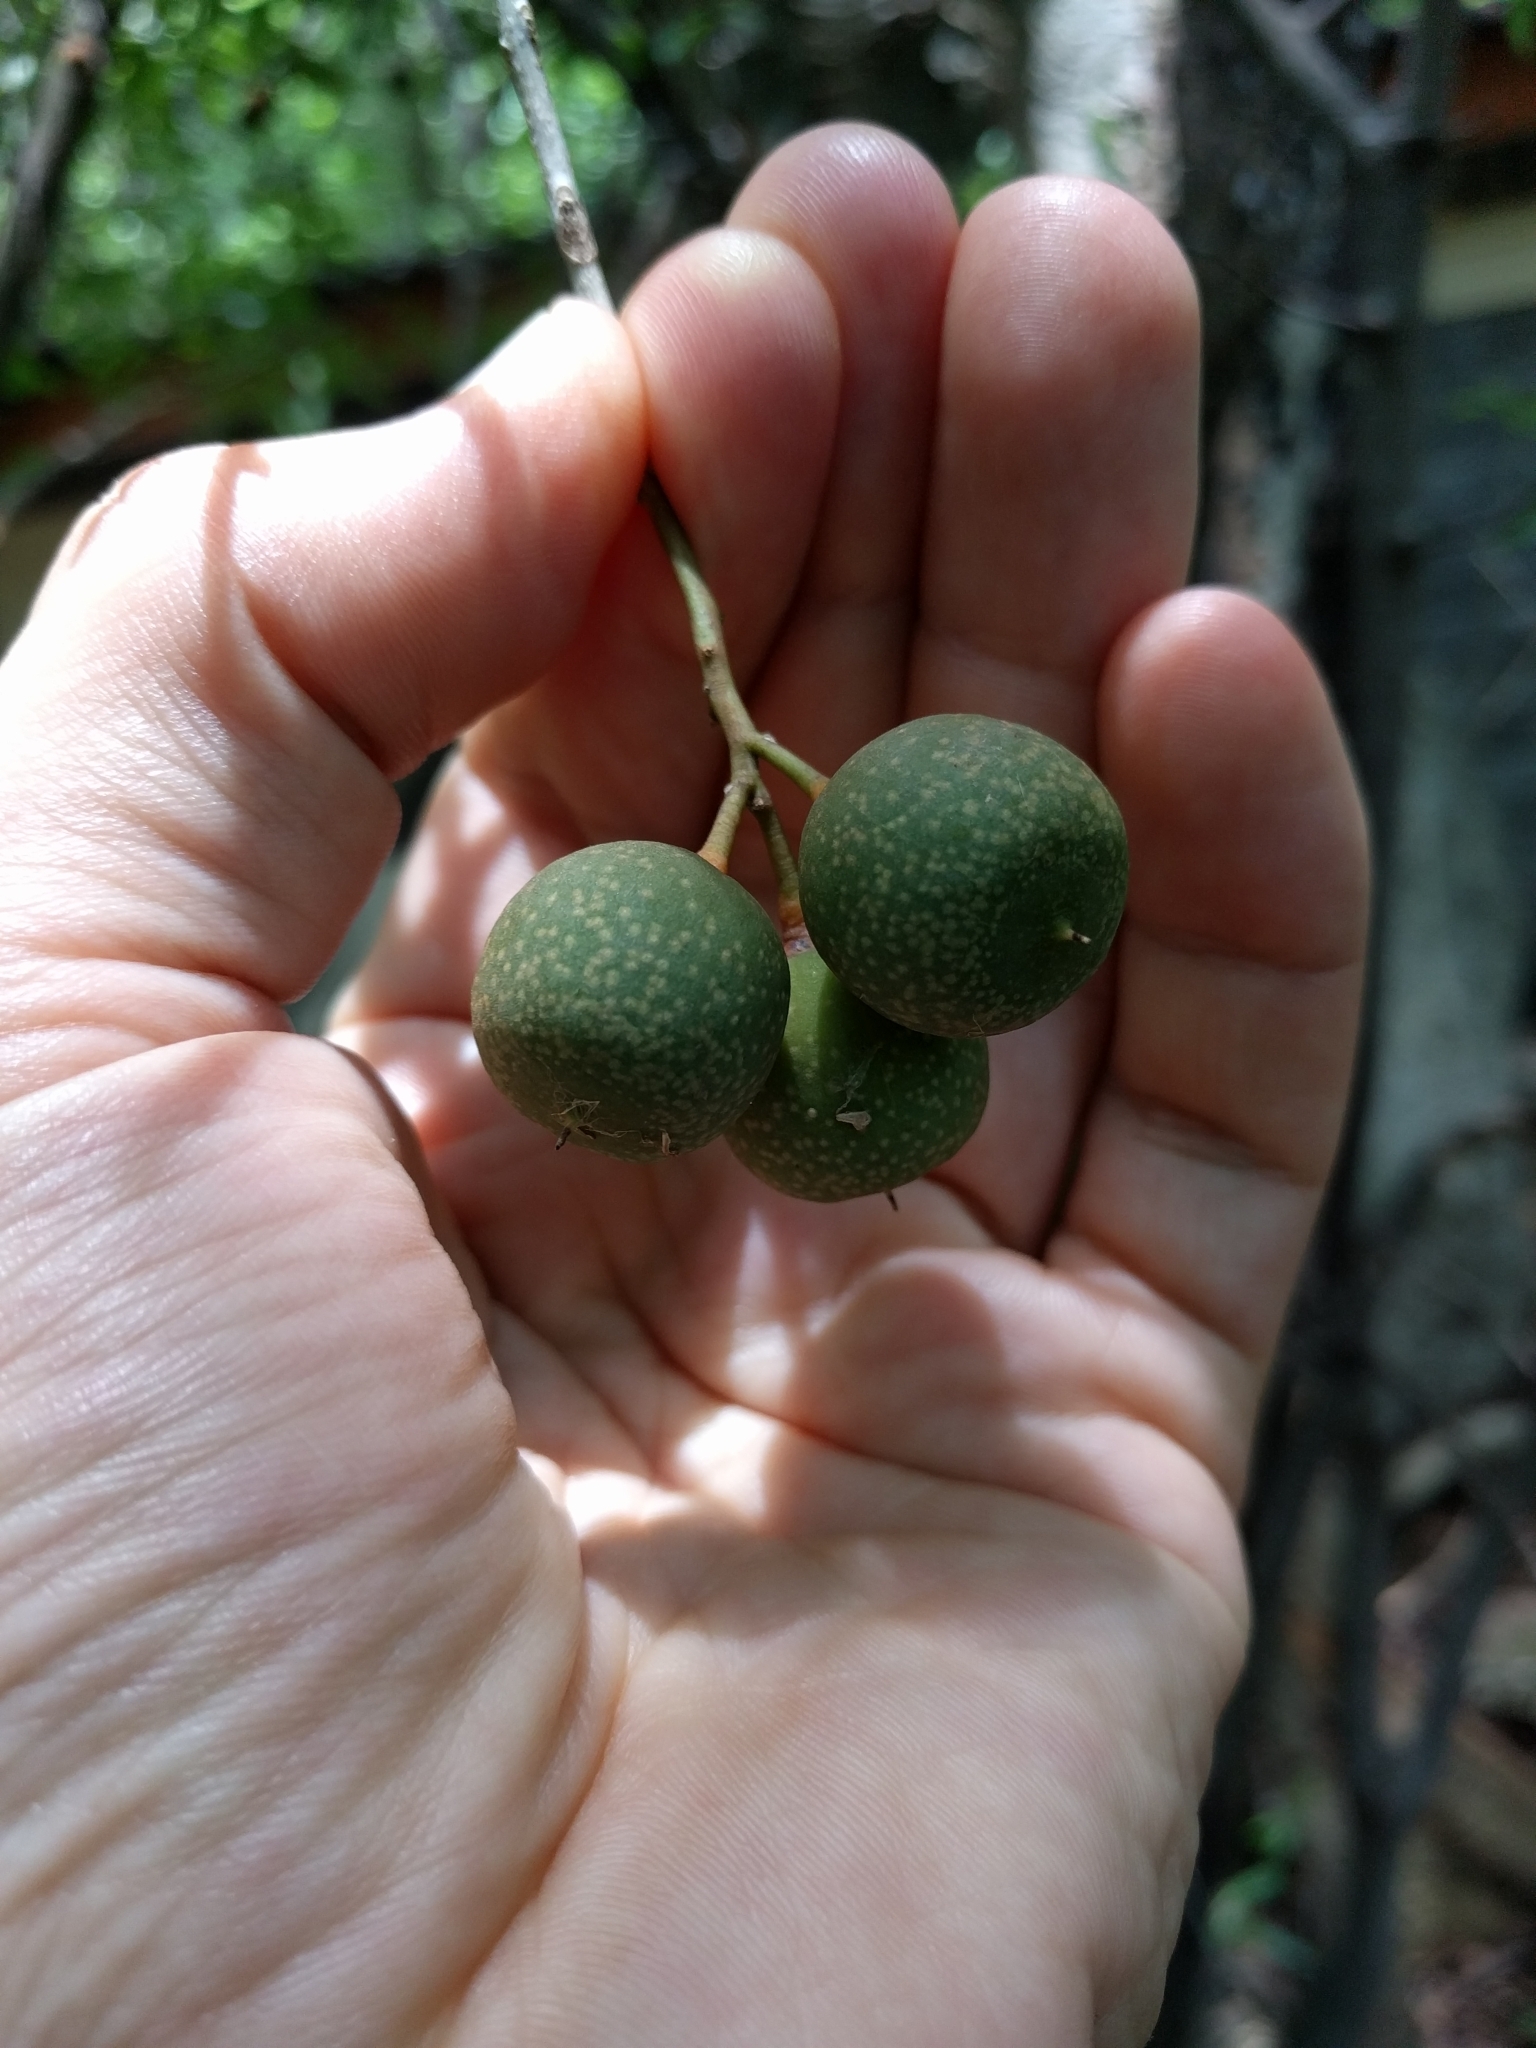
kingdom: Plantae
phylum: Tracheophyta
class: Magnoliopsida
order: Ericales
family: Primulaceae
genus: Bonellia
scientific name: Bonellia nervosa
